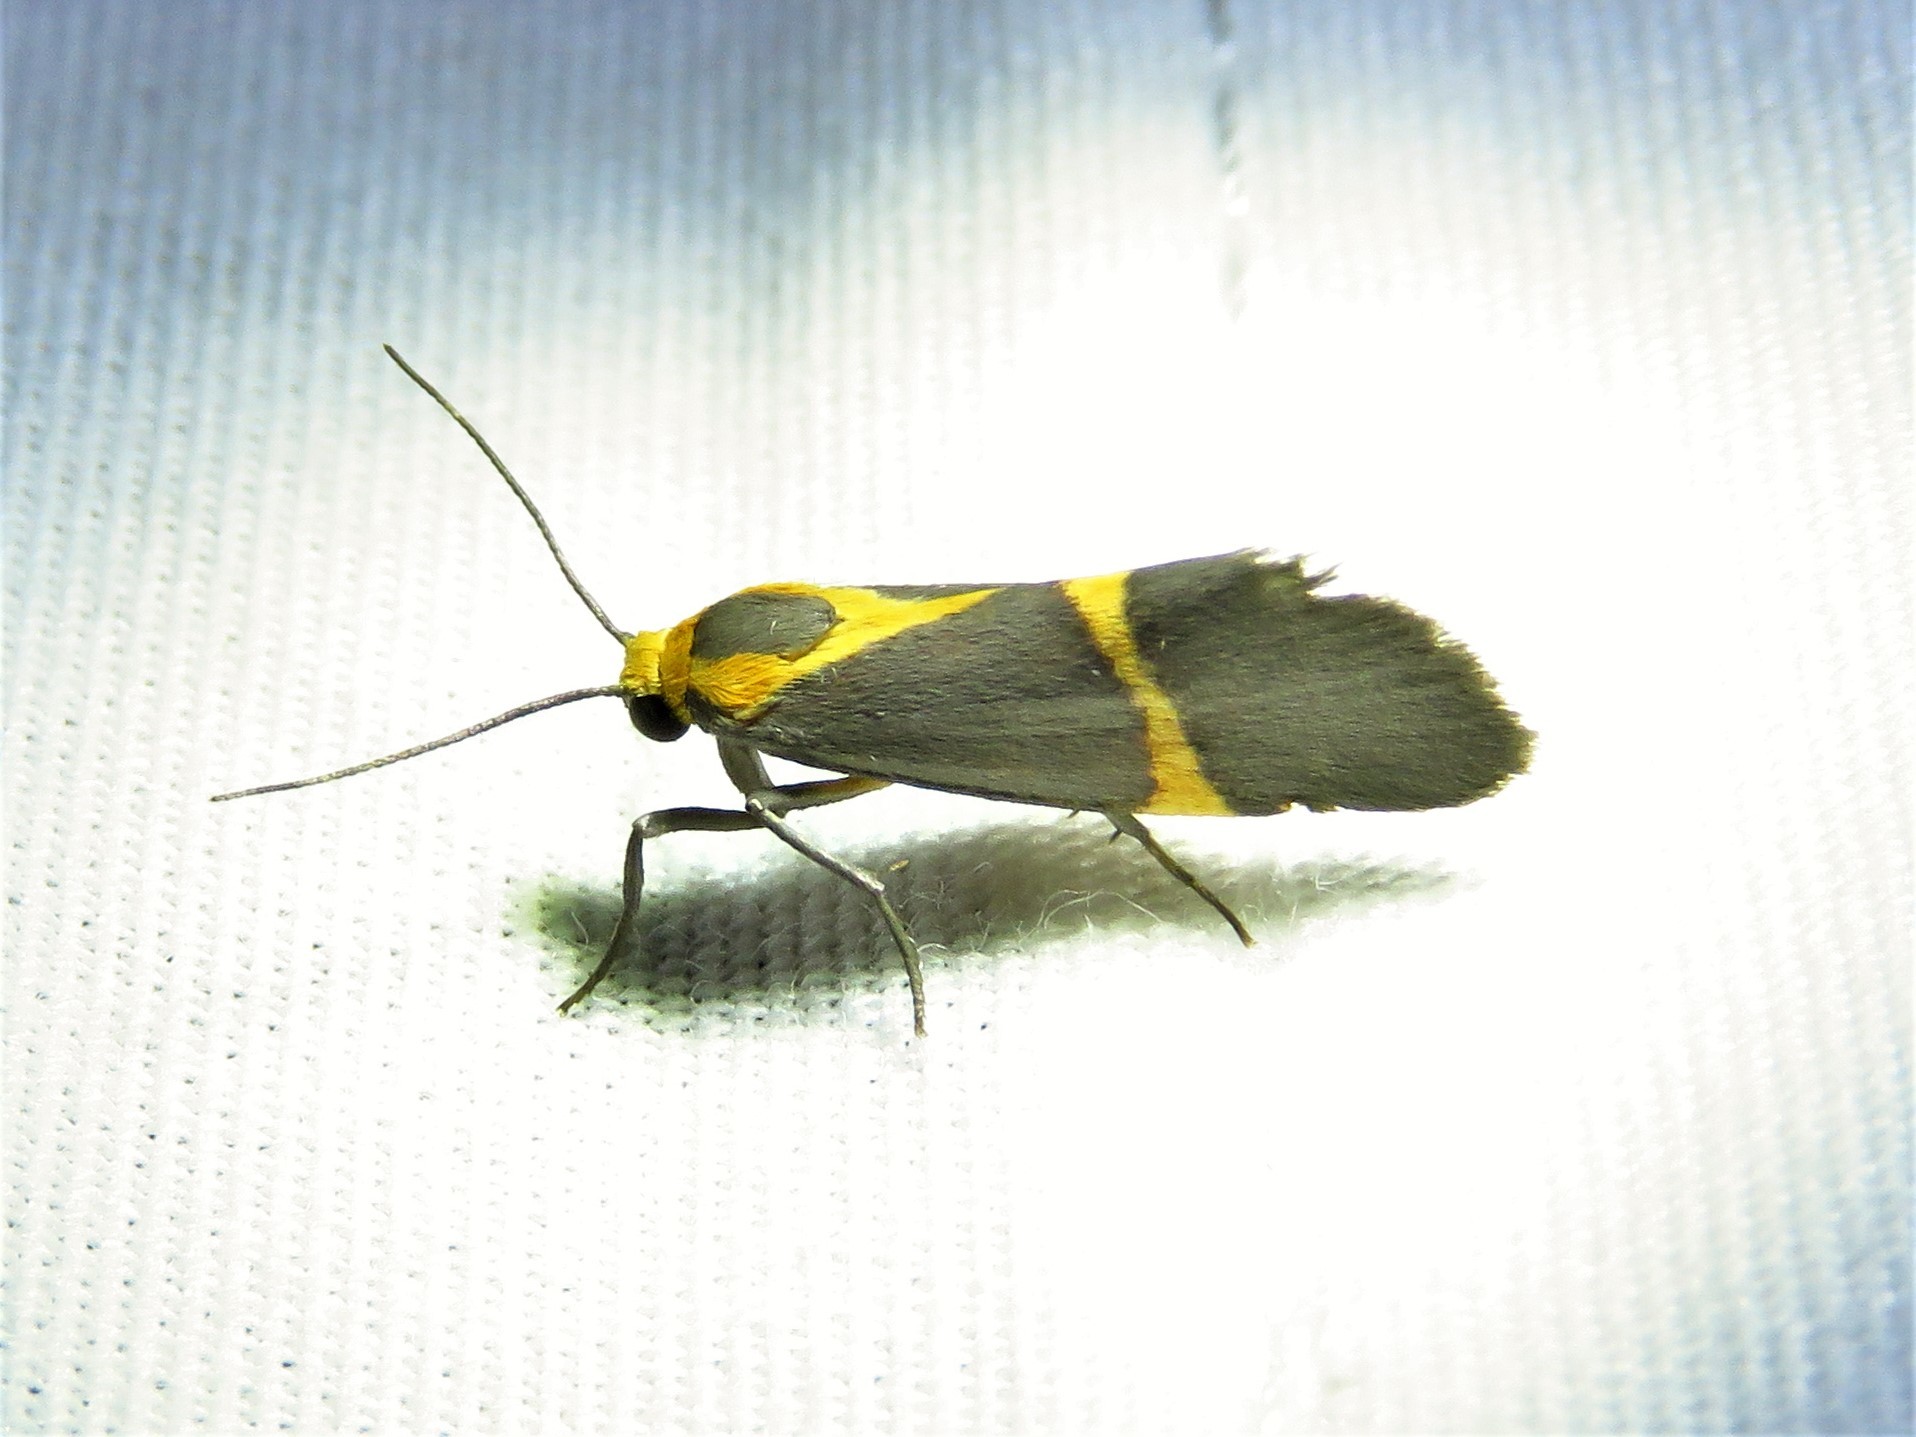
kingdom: Animalia
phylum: Arthropoda
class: Insecta
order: Lepidoptera
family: Erebidae
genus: Cisthene
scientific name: Cisthene tenuifascia
